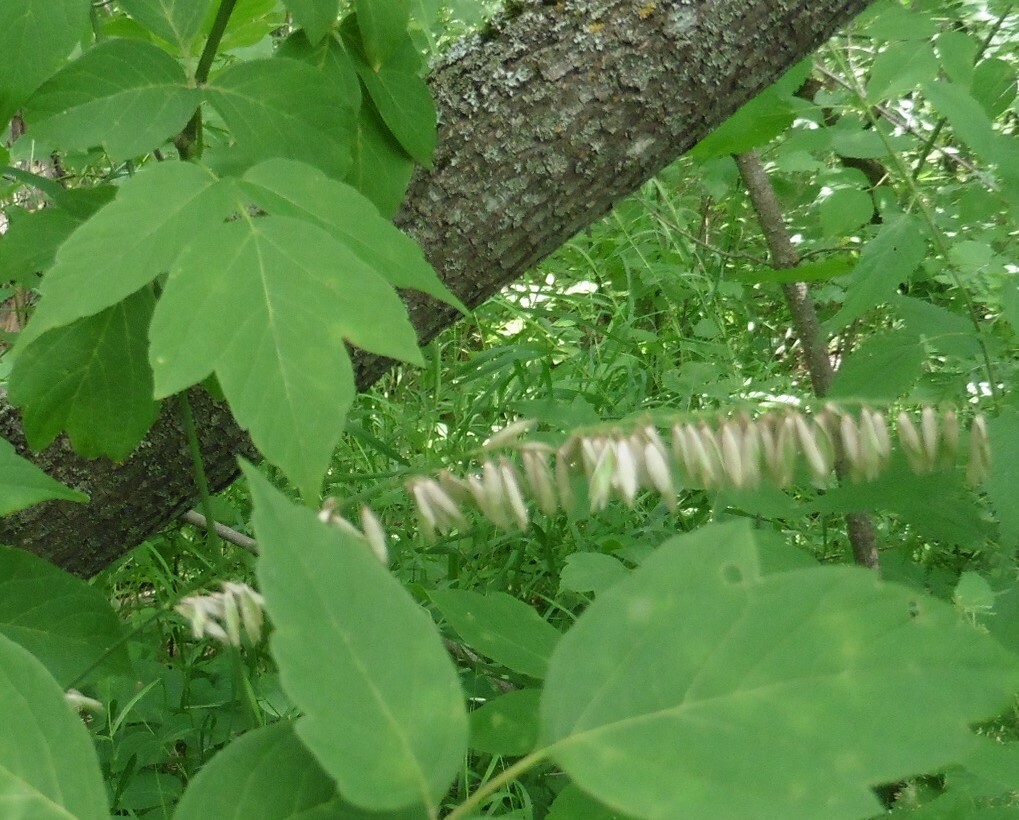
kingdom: Plantae
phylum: Tracheophyta
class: Liliopsida
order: Poales
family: Poaceae
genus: Melica
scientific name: Melica altissima
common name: Siberian melicgrass
